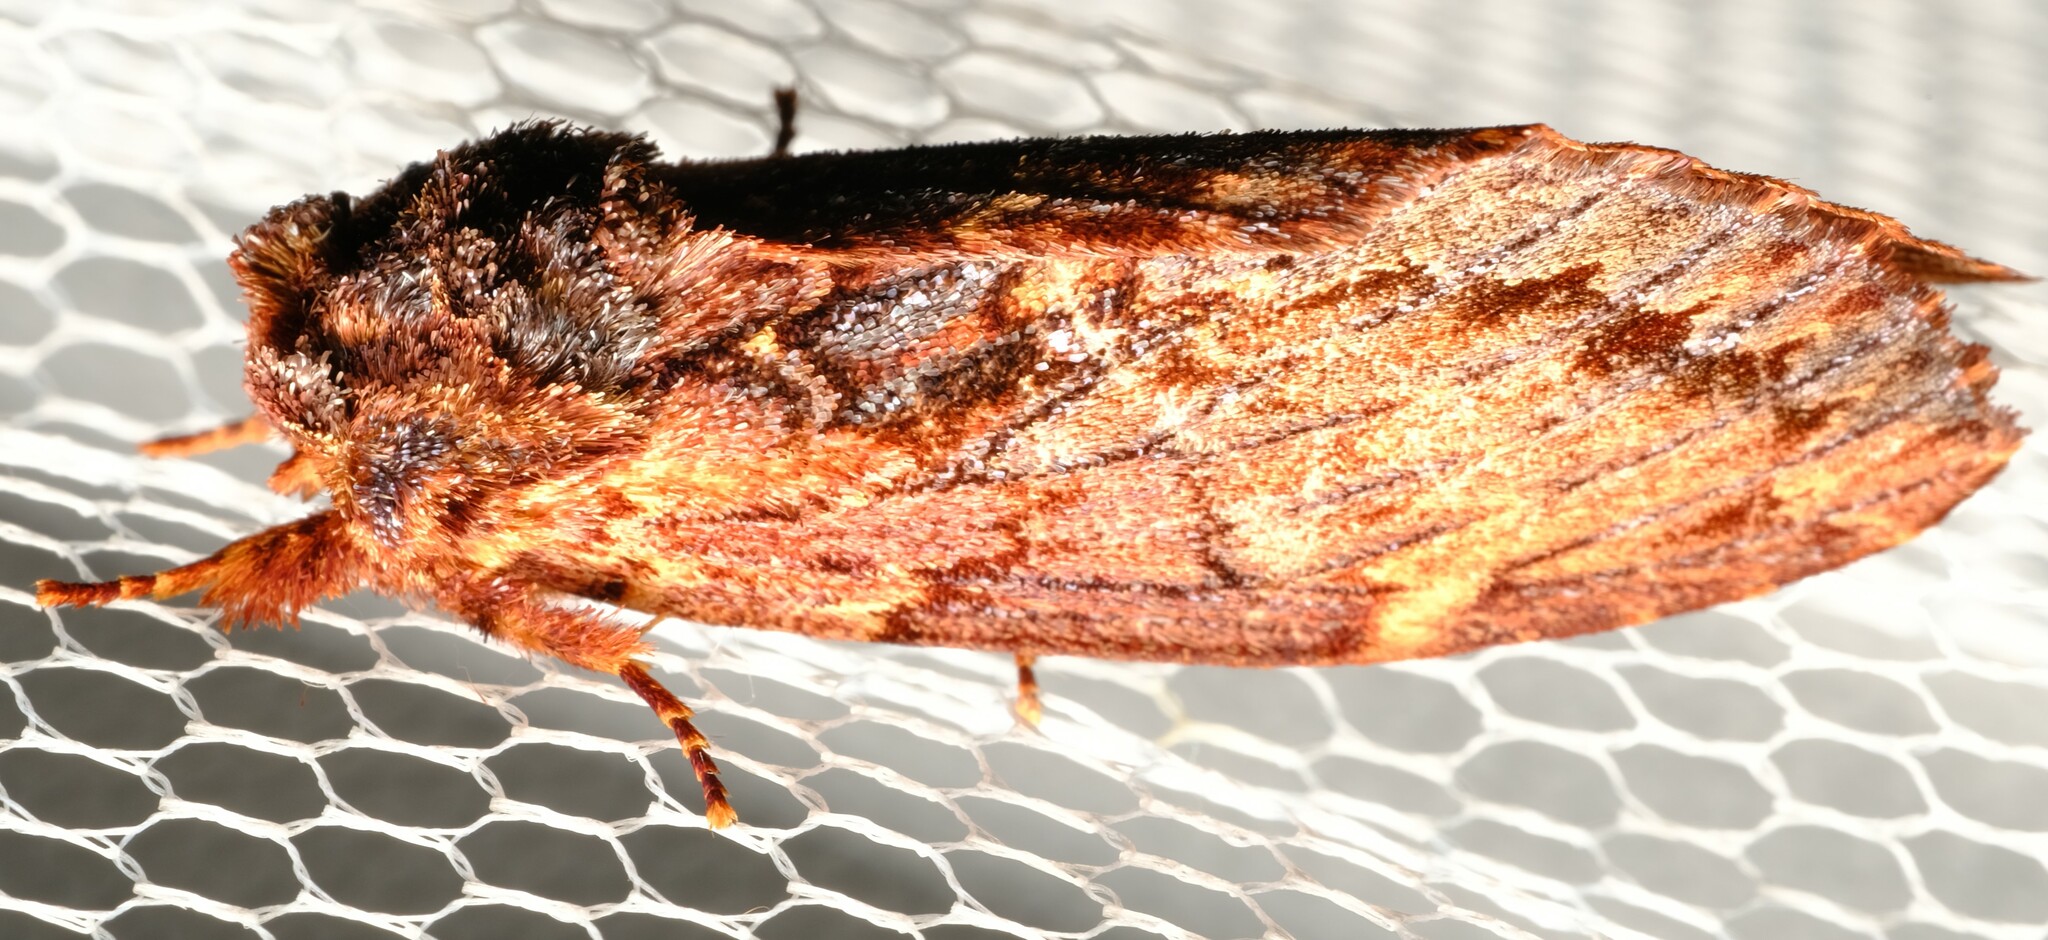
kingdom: Animalia
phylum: Arthropoda
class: Insecta
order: Lepidoptera
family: Notodontidae
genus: Sorama
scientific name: Sorama bicolor
